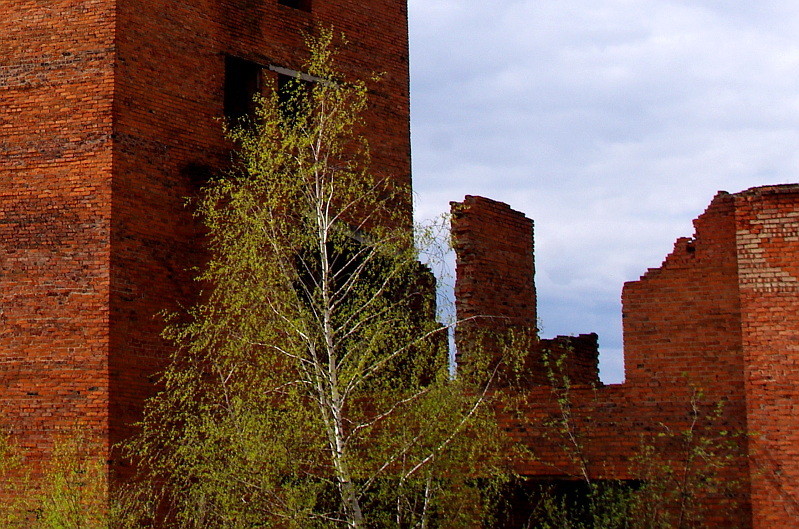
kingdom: Plantae
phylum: Tracheophyta
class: Magnoliopsida
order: Fagales
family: Betulaceae
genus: Betula
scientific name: Betula pendula
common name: Silver birch
